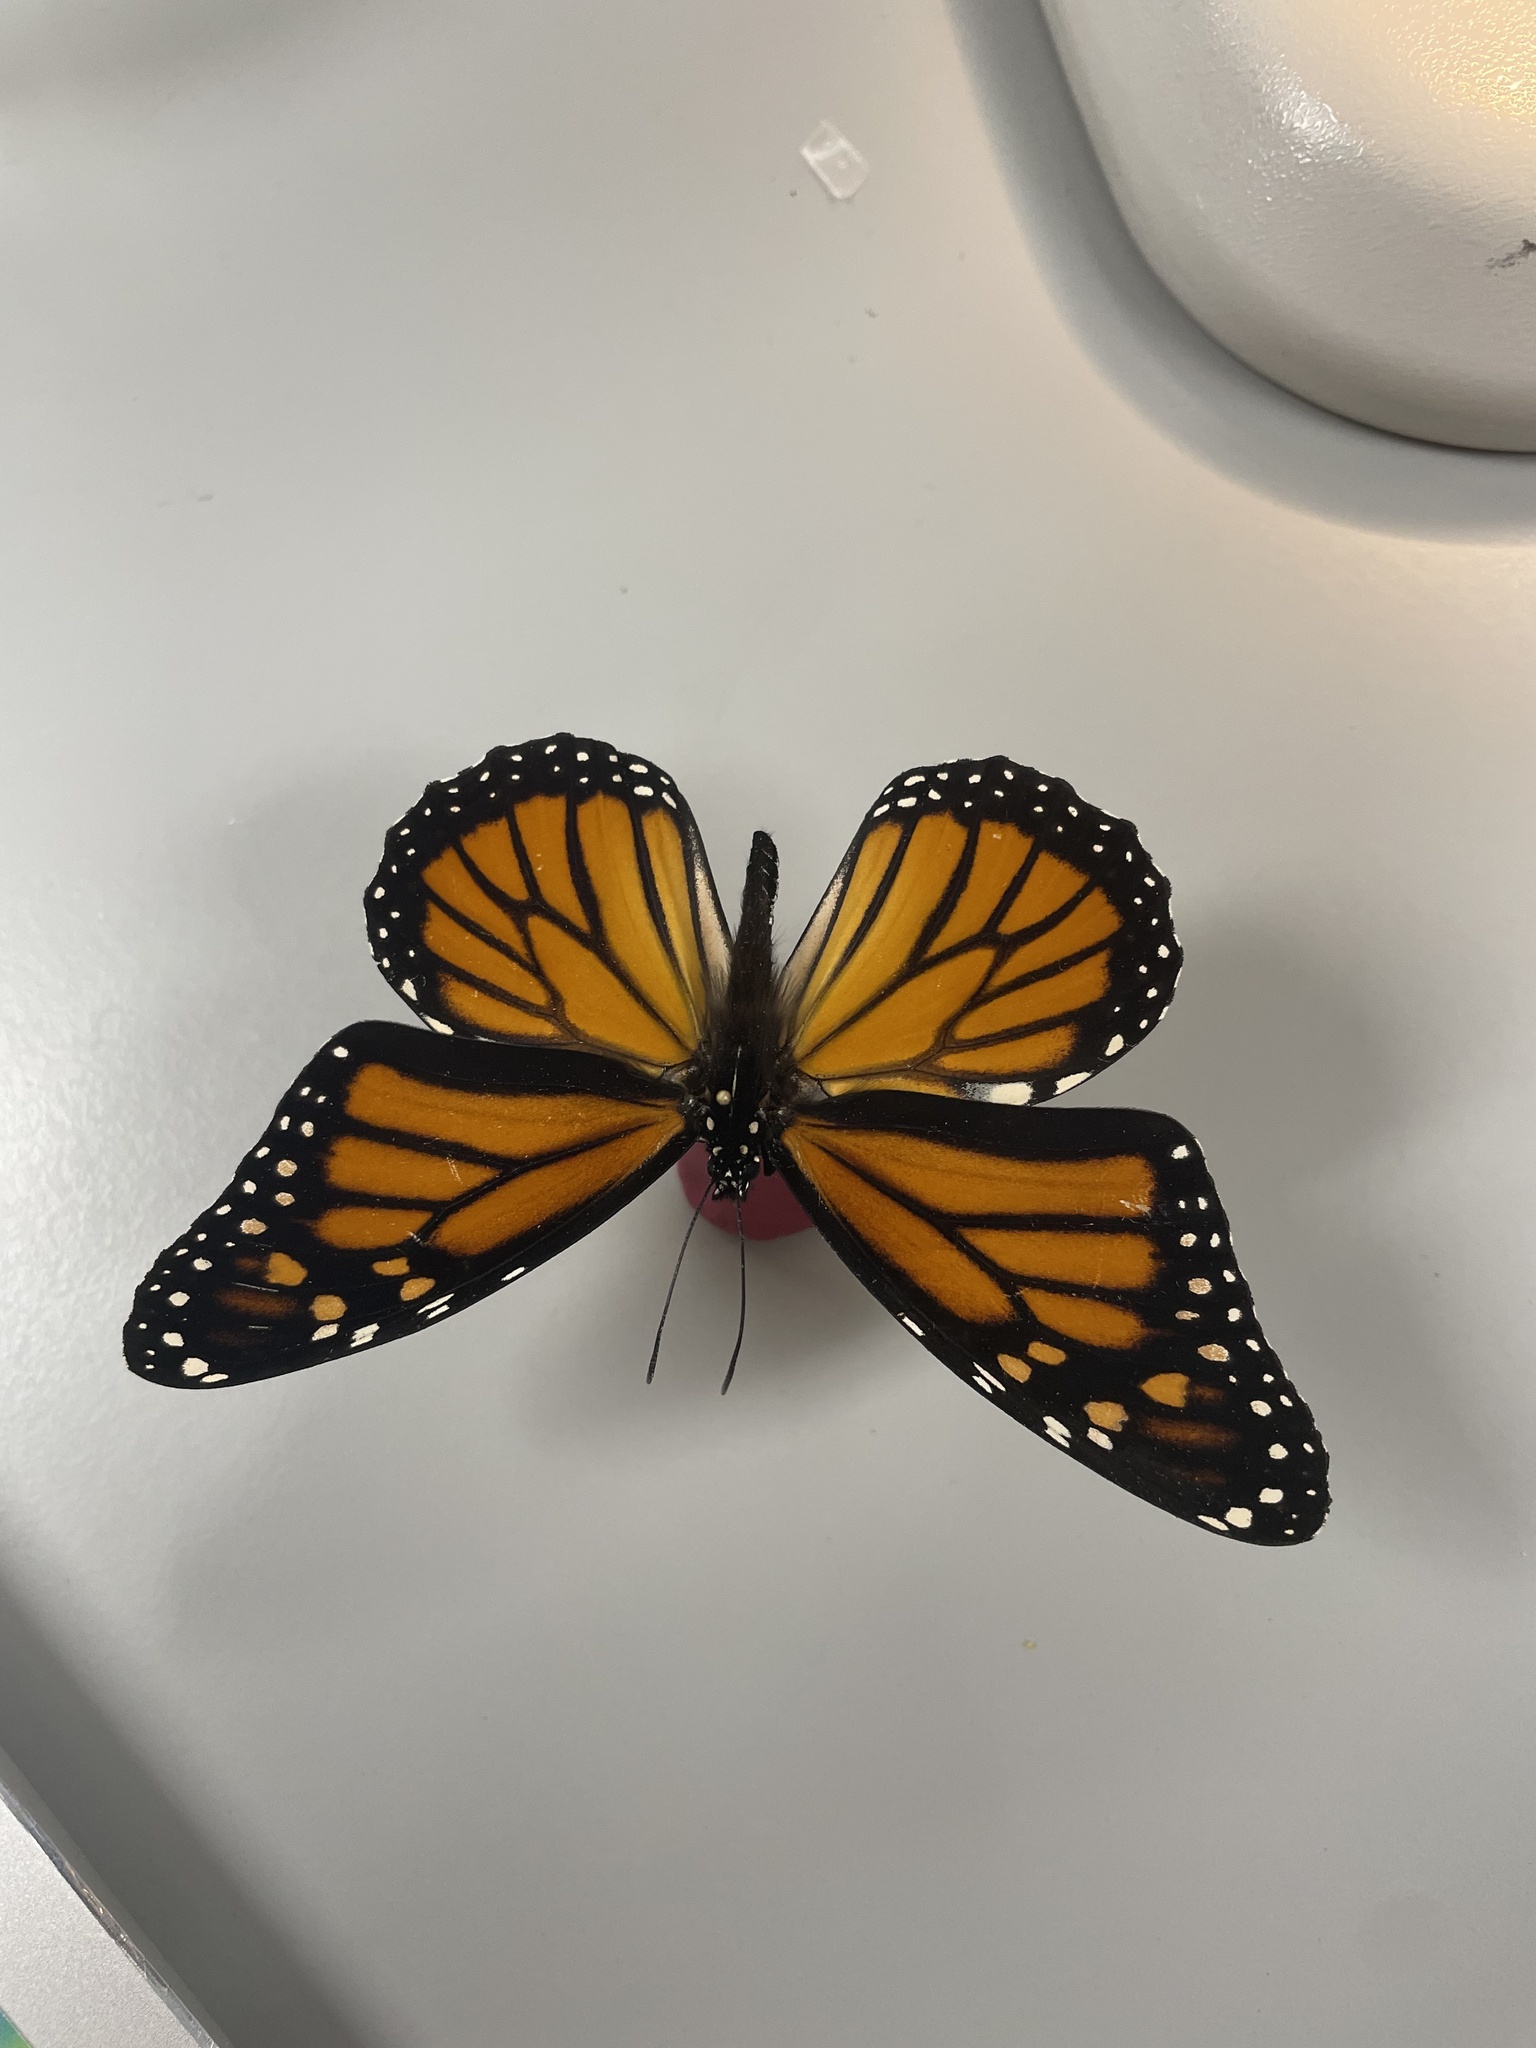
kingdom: Animalia
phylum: Arthropoda
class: Insecta
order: Lepidoptera
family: Nymphalidae
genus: Danaus
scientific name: Danaus plexippus
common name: Monarch
